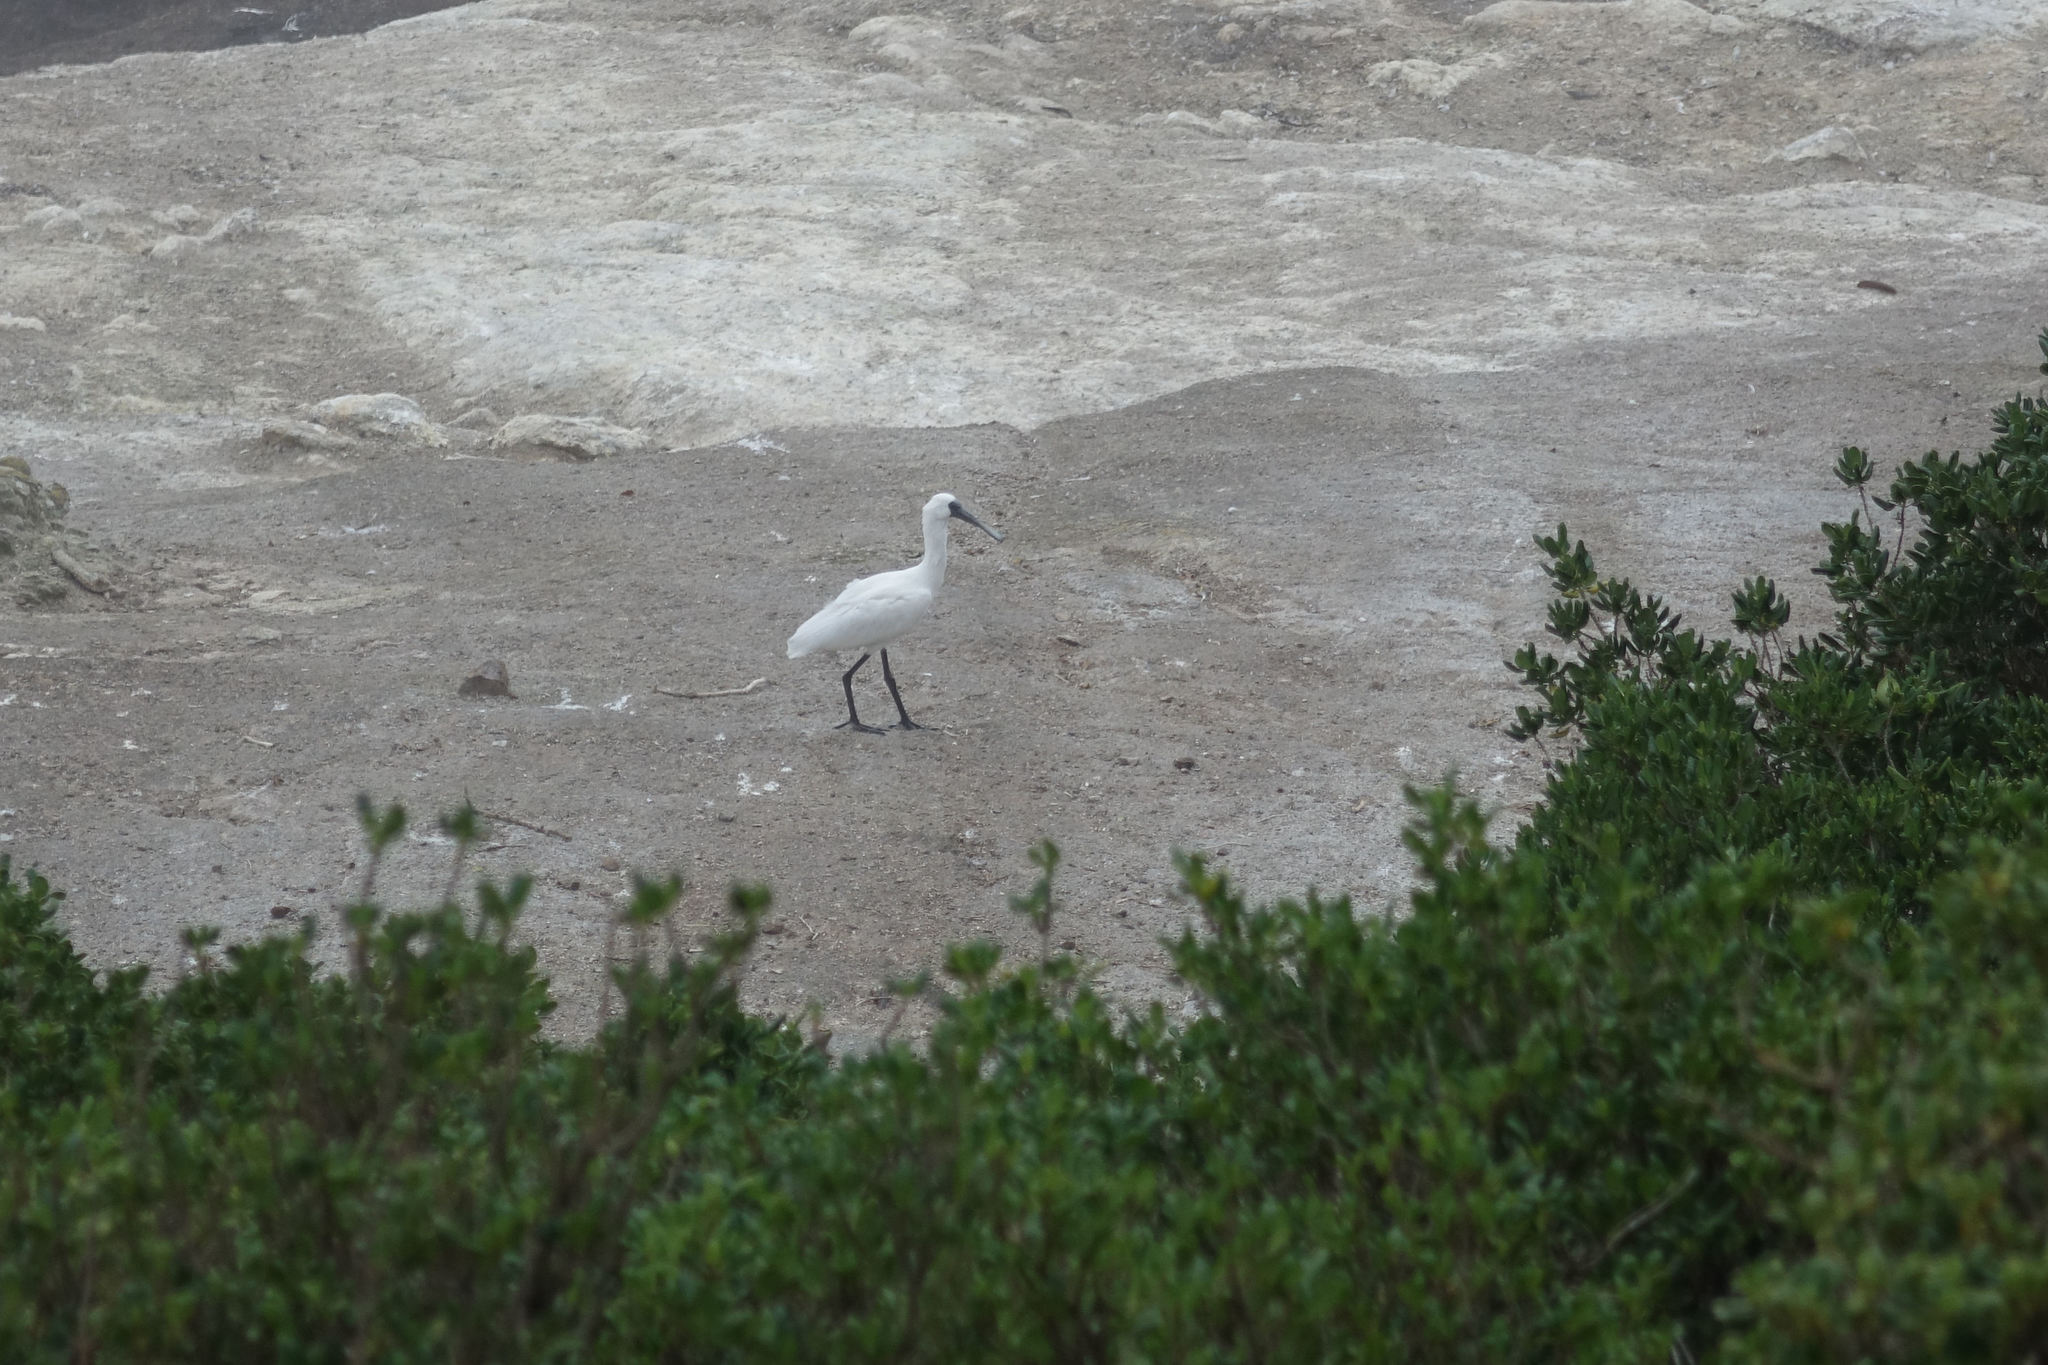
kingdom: Animalia
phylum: Chordata
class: Aves
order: Pelecaniformes
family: Threskiornithidae
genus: Platalea
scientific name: Platalea regia
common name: Royal spoonbill
